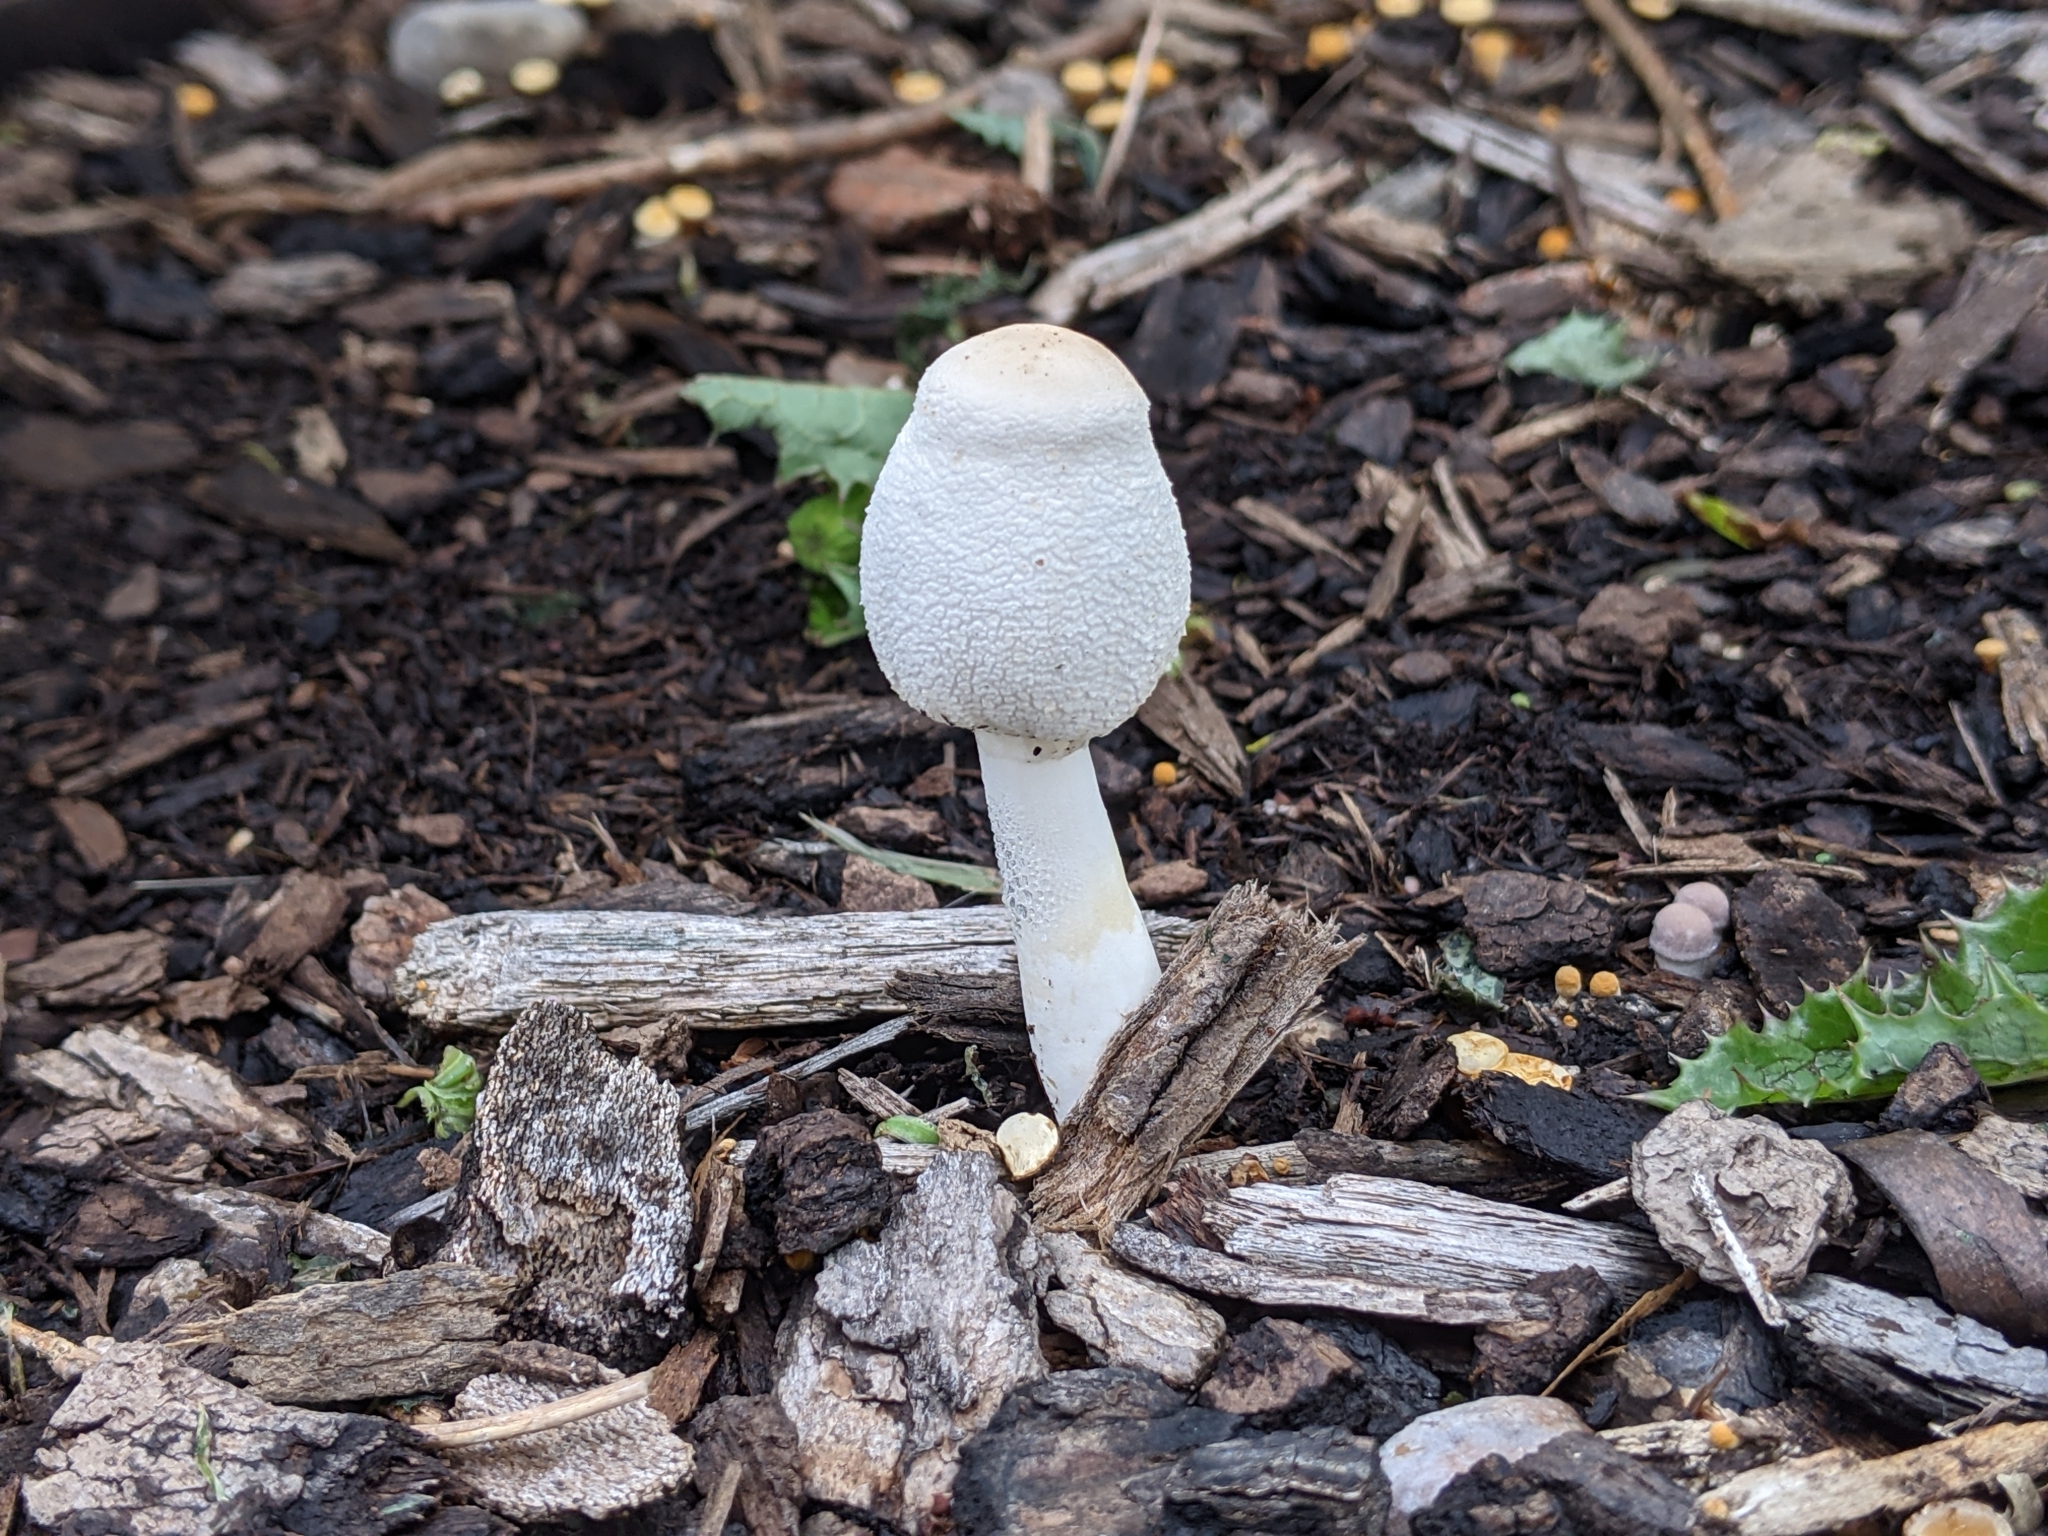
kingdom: Fungi
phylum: Basidiomycota
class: Agaricomycetes
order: Agaricales
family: Agaricaceae
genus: Leucocoprinus
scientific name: Leucocoprinus cepistipes
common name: Onion-stalk parasol
